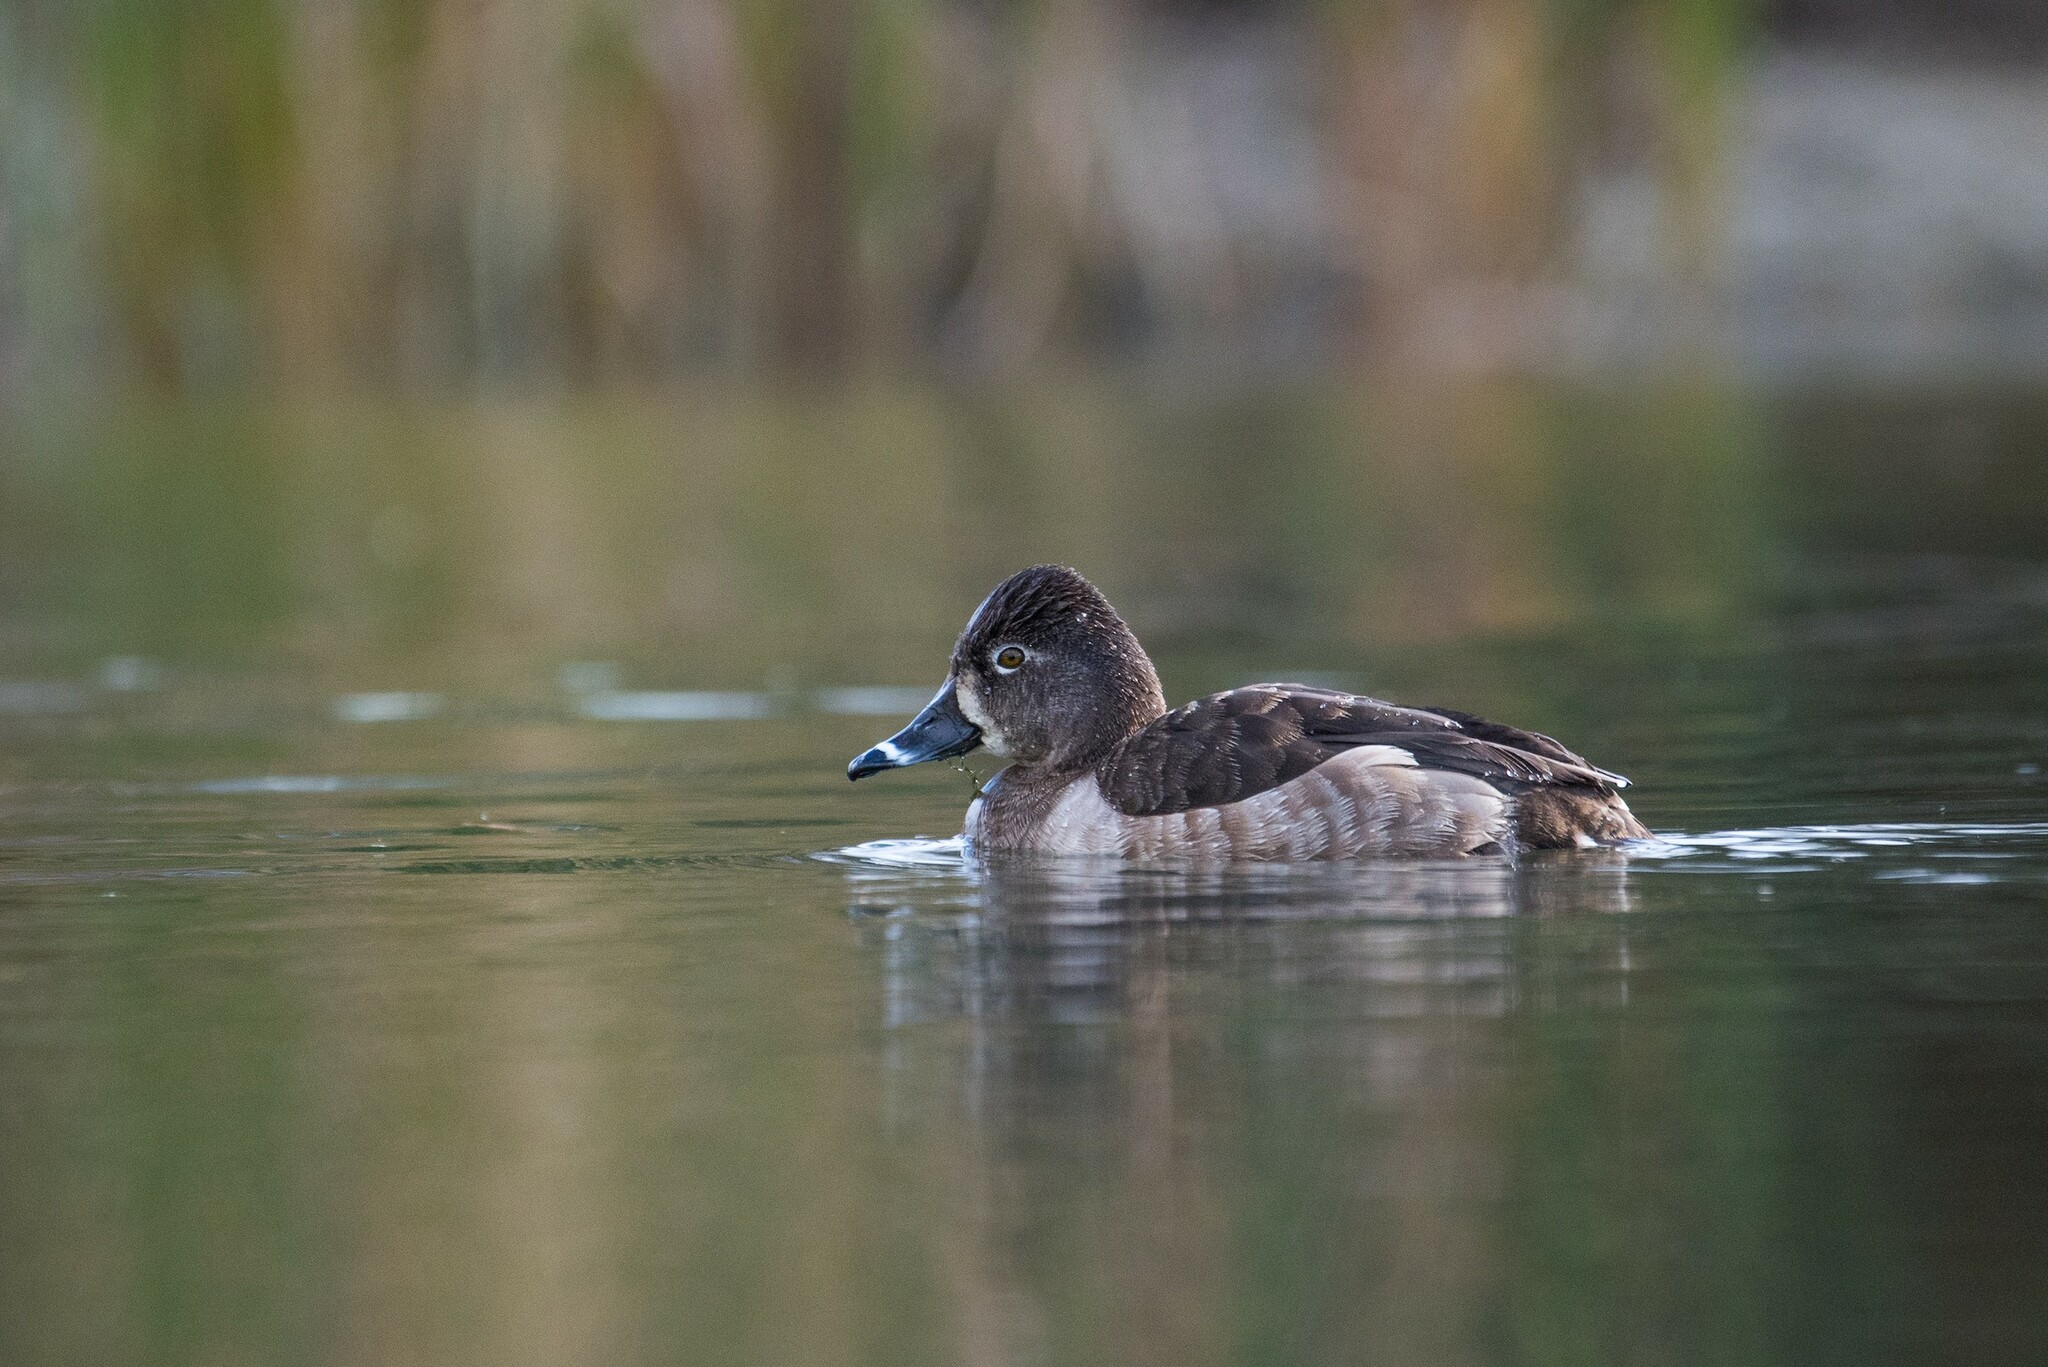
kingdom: Animalia
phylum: Chordata
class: Aves
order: Anseriformes
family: Anatidae
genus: Aythya
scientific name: Aythya collaris
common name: Ring-necked duck
